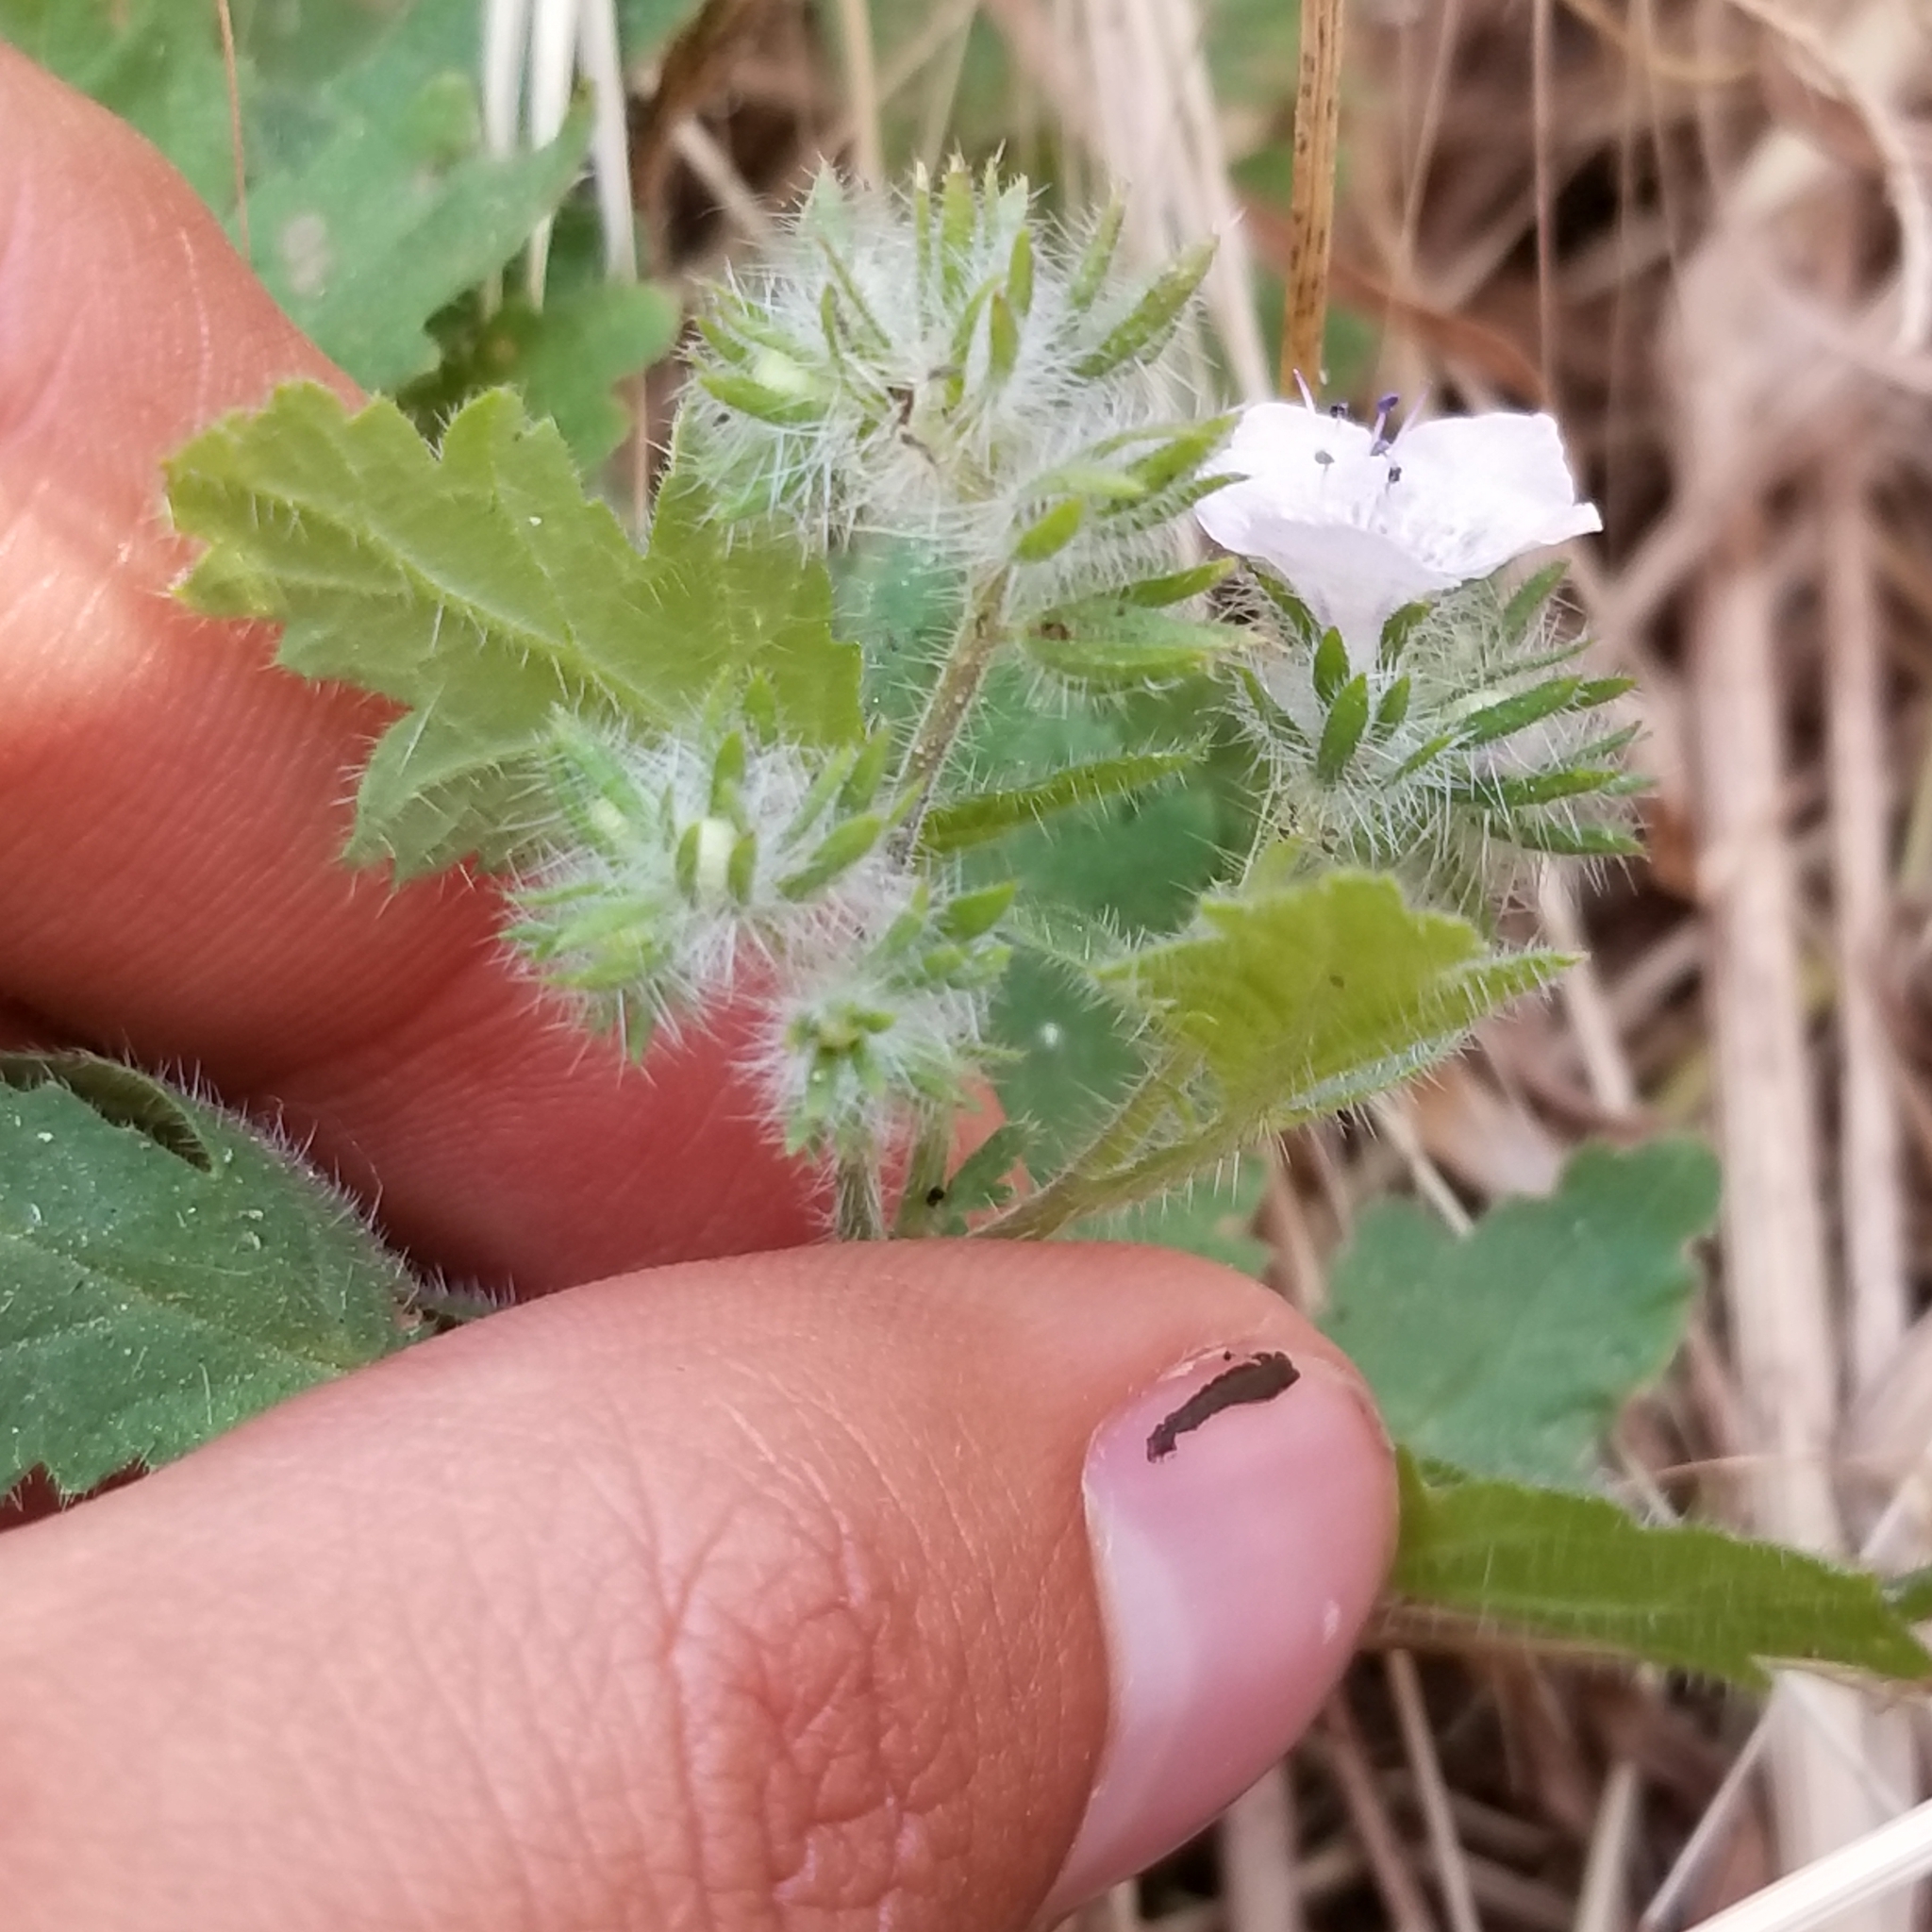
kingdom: Plantae
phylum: Tracheophyta
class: Magnoliopsida
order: Boraginales
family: Hydrophyllaceae
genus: Phacelia
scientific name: Phacelia cicutaria
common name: Caterpillar phacelia
